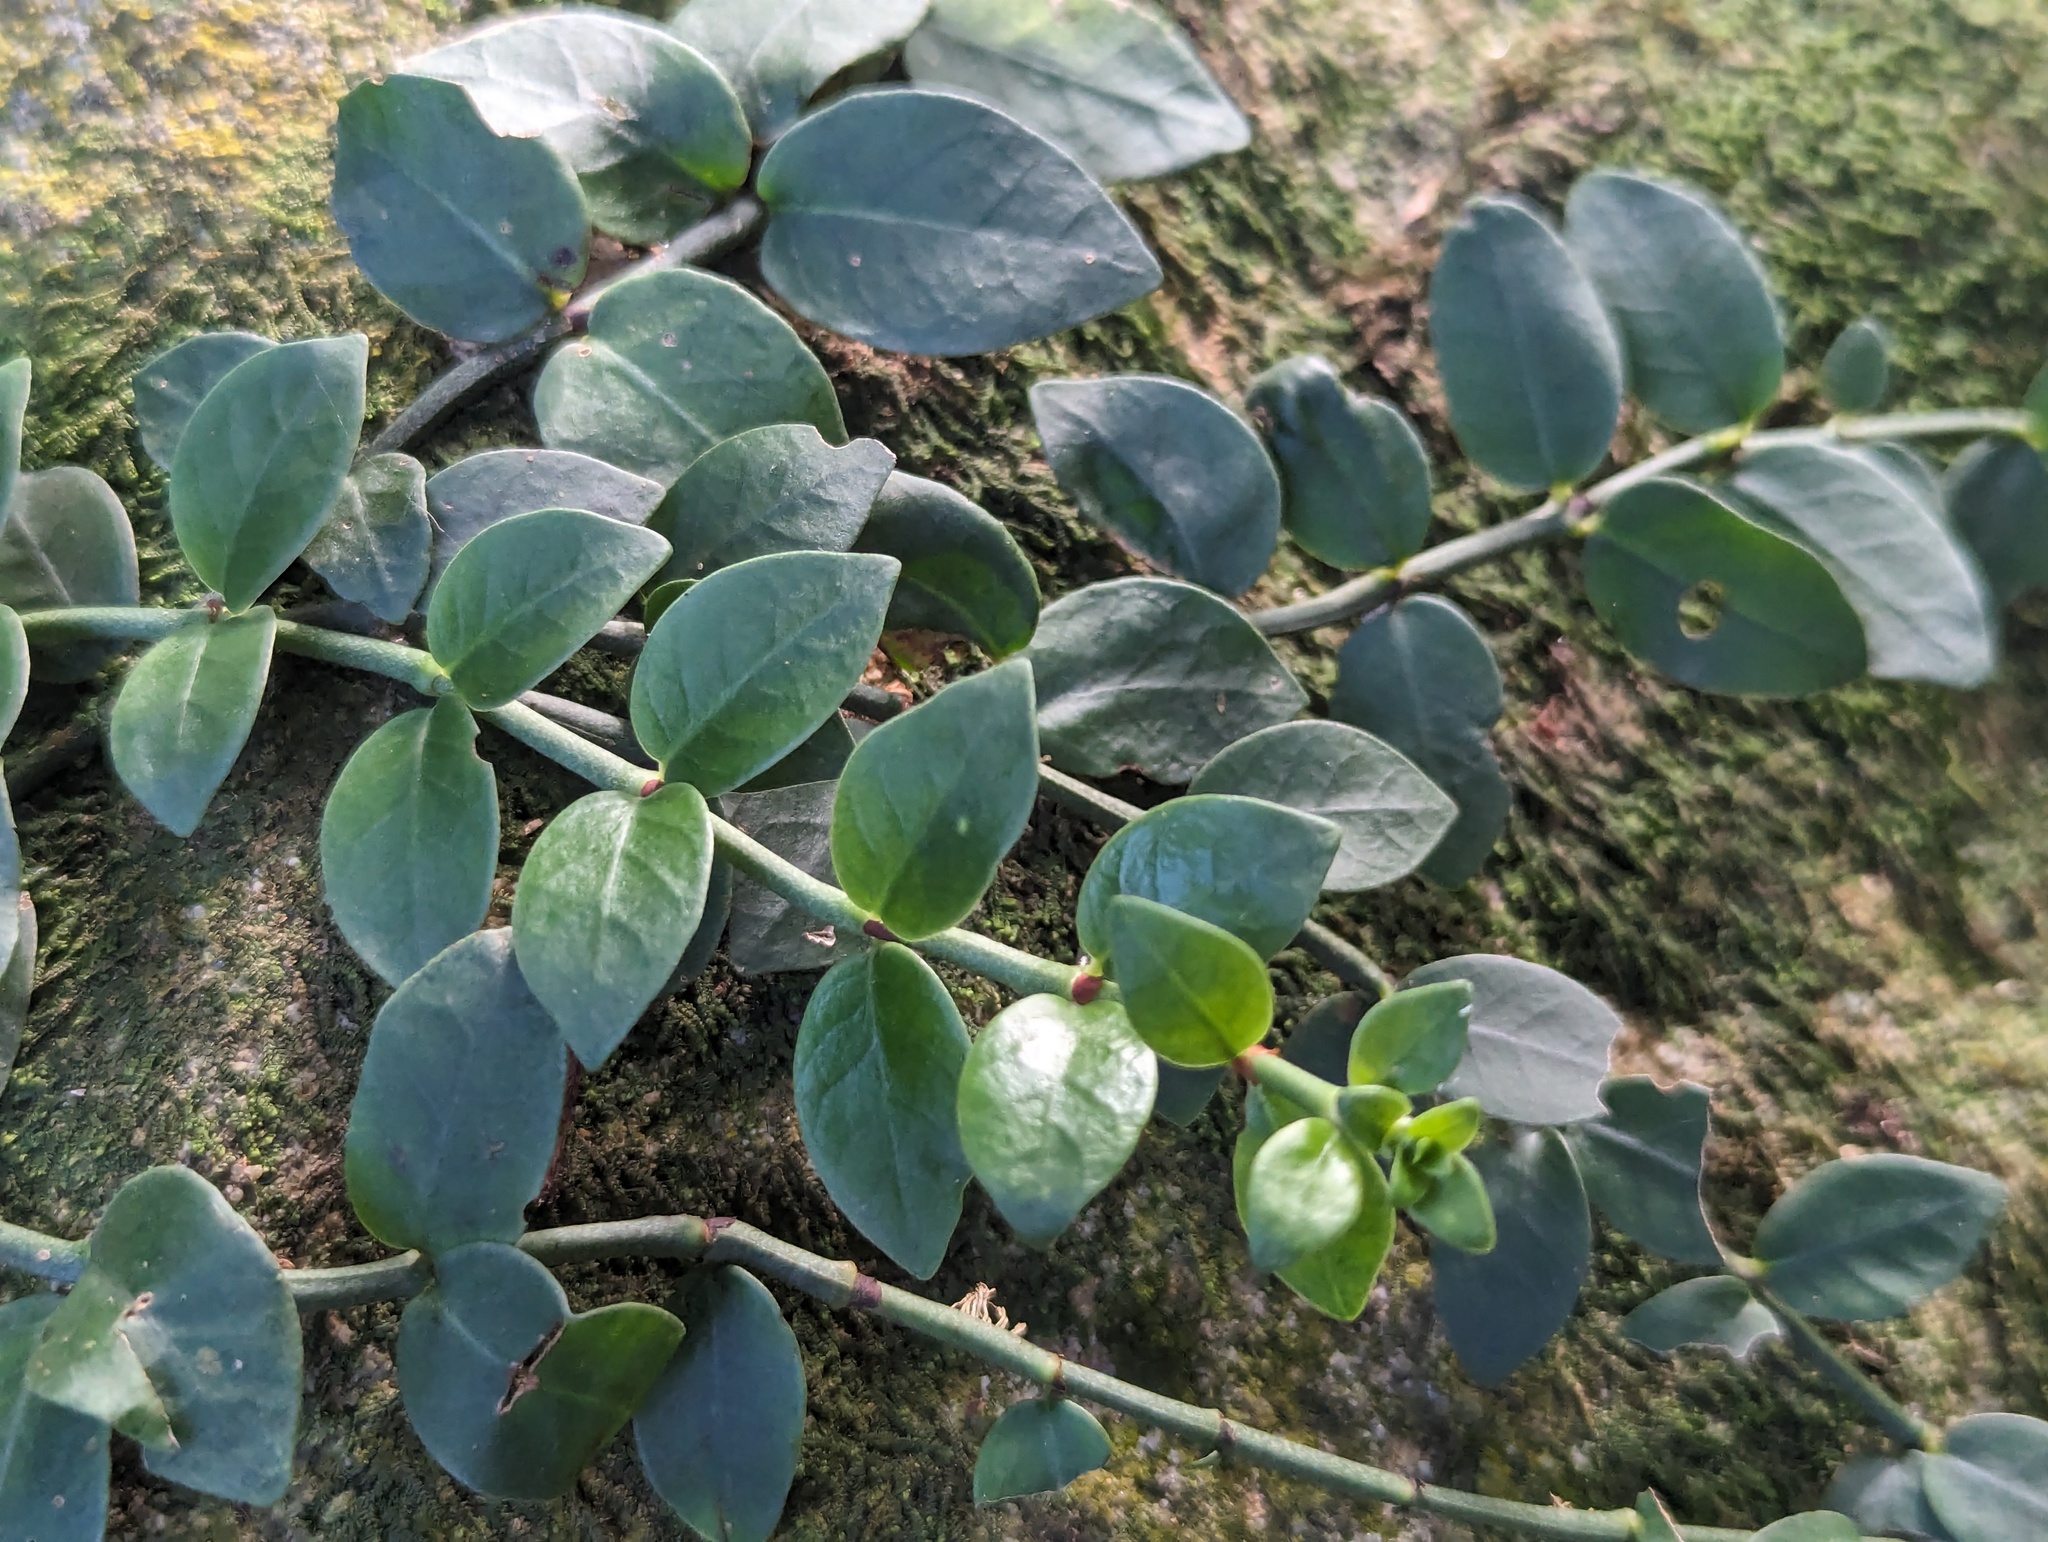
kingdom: Plantae
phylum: Tracheophyta
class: Magnoliopsida
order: Gentianales
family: Rubiaceae
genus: Psychotria
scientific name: Psychotria serpens
